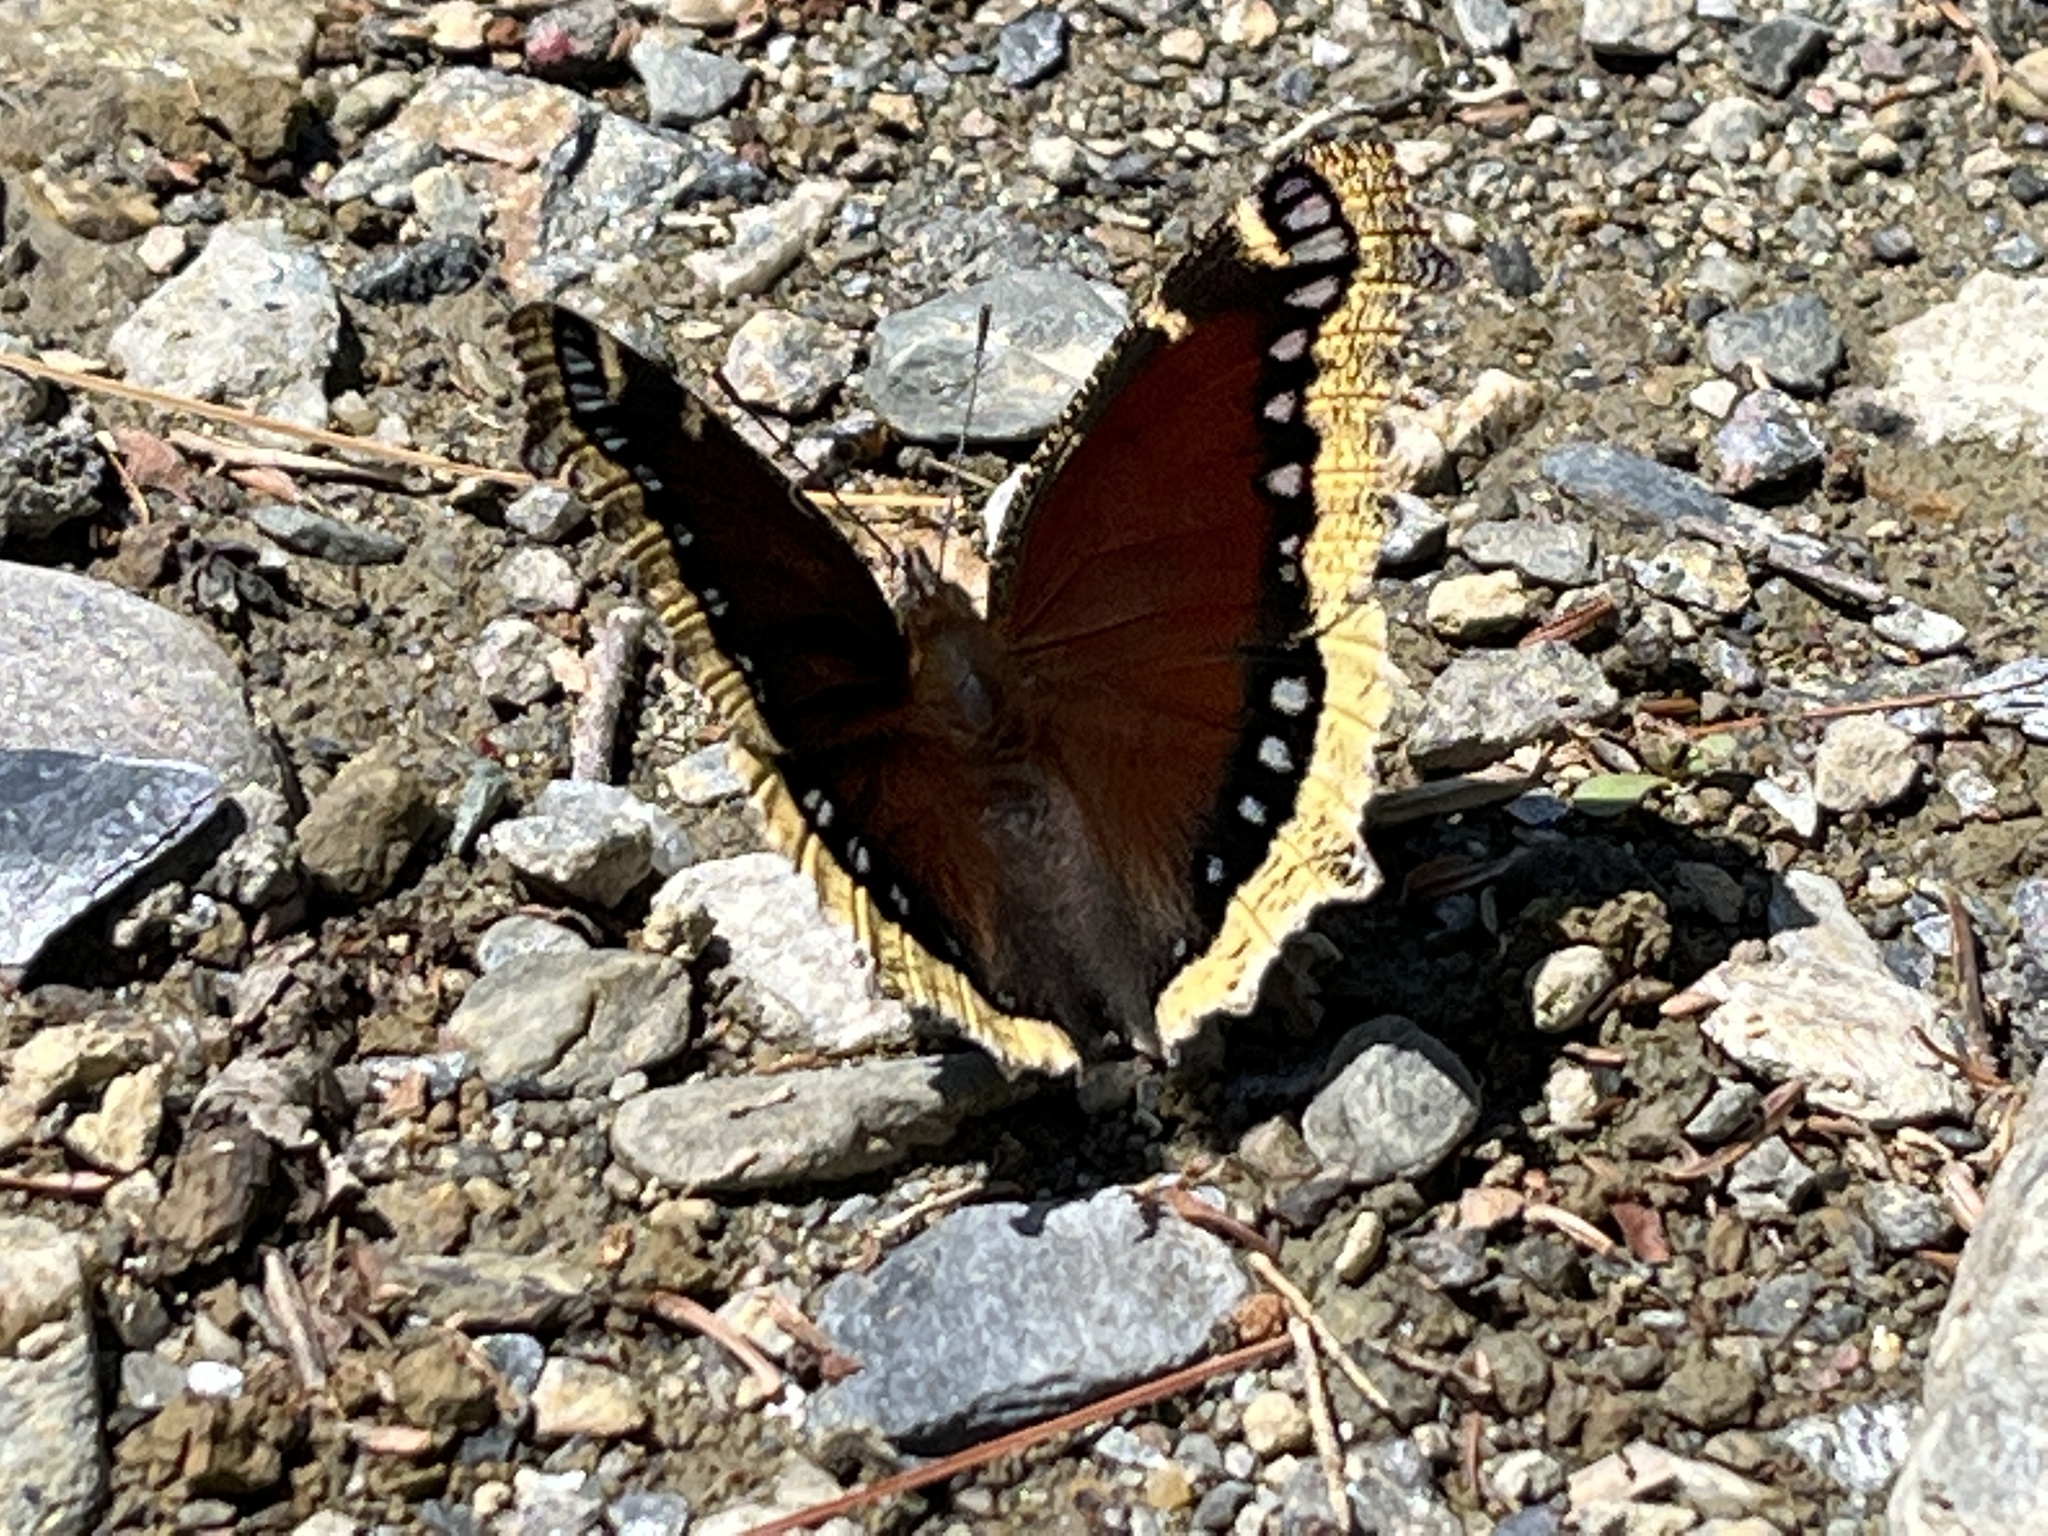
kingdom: Animalia
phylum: Arthropoda
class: Insecta
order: Lepidoptera
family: Nymphalidae
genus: Nymphalis
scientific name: Nymphalis antiopa
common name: Camberwell beauty
